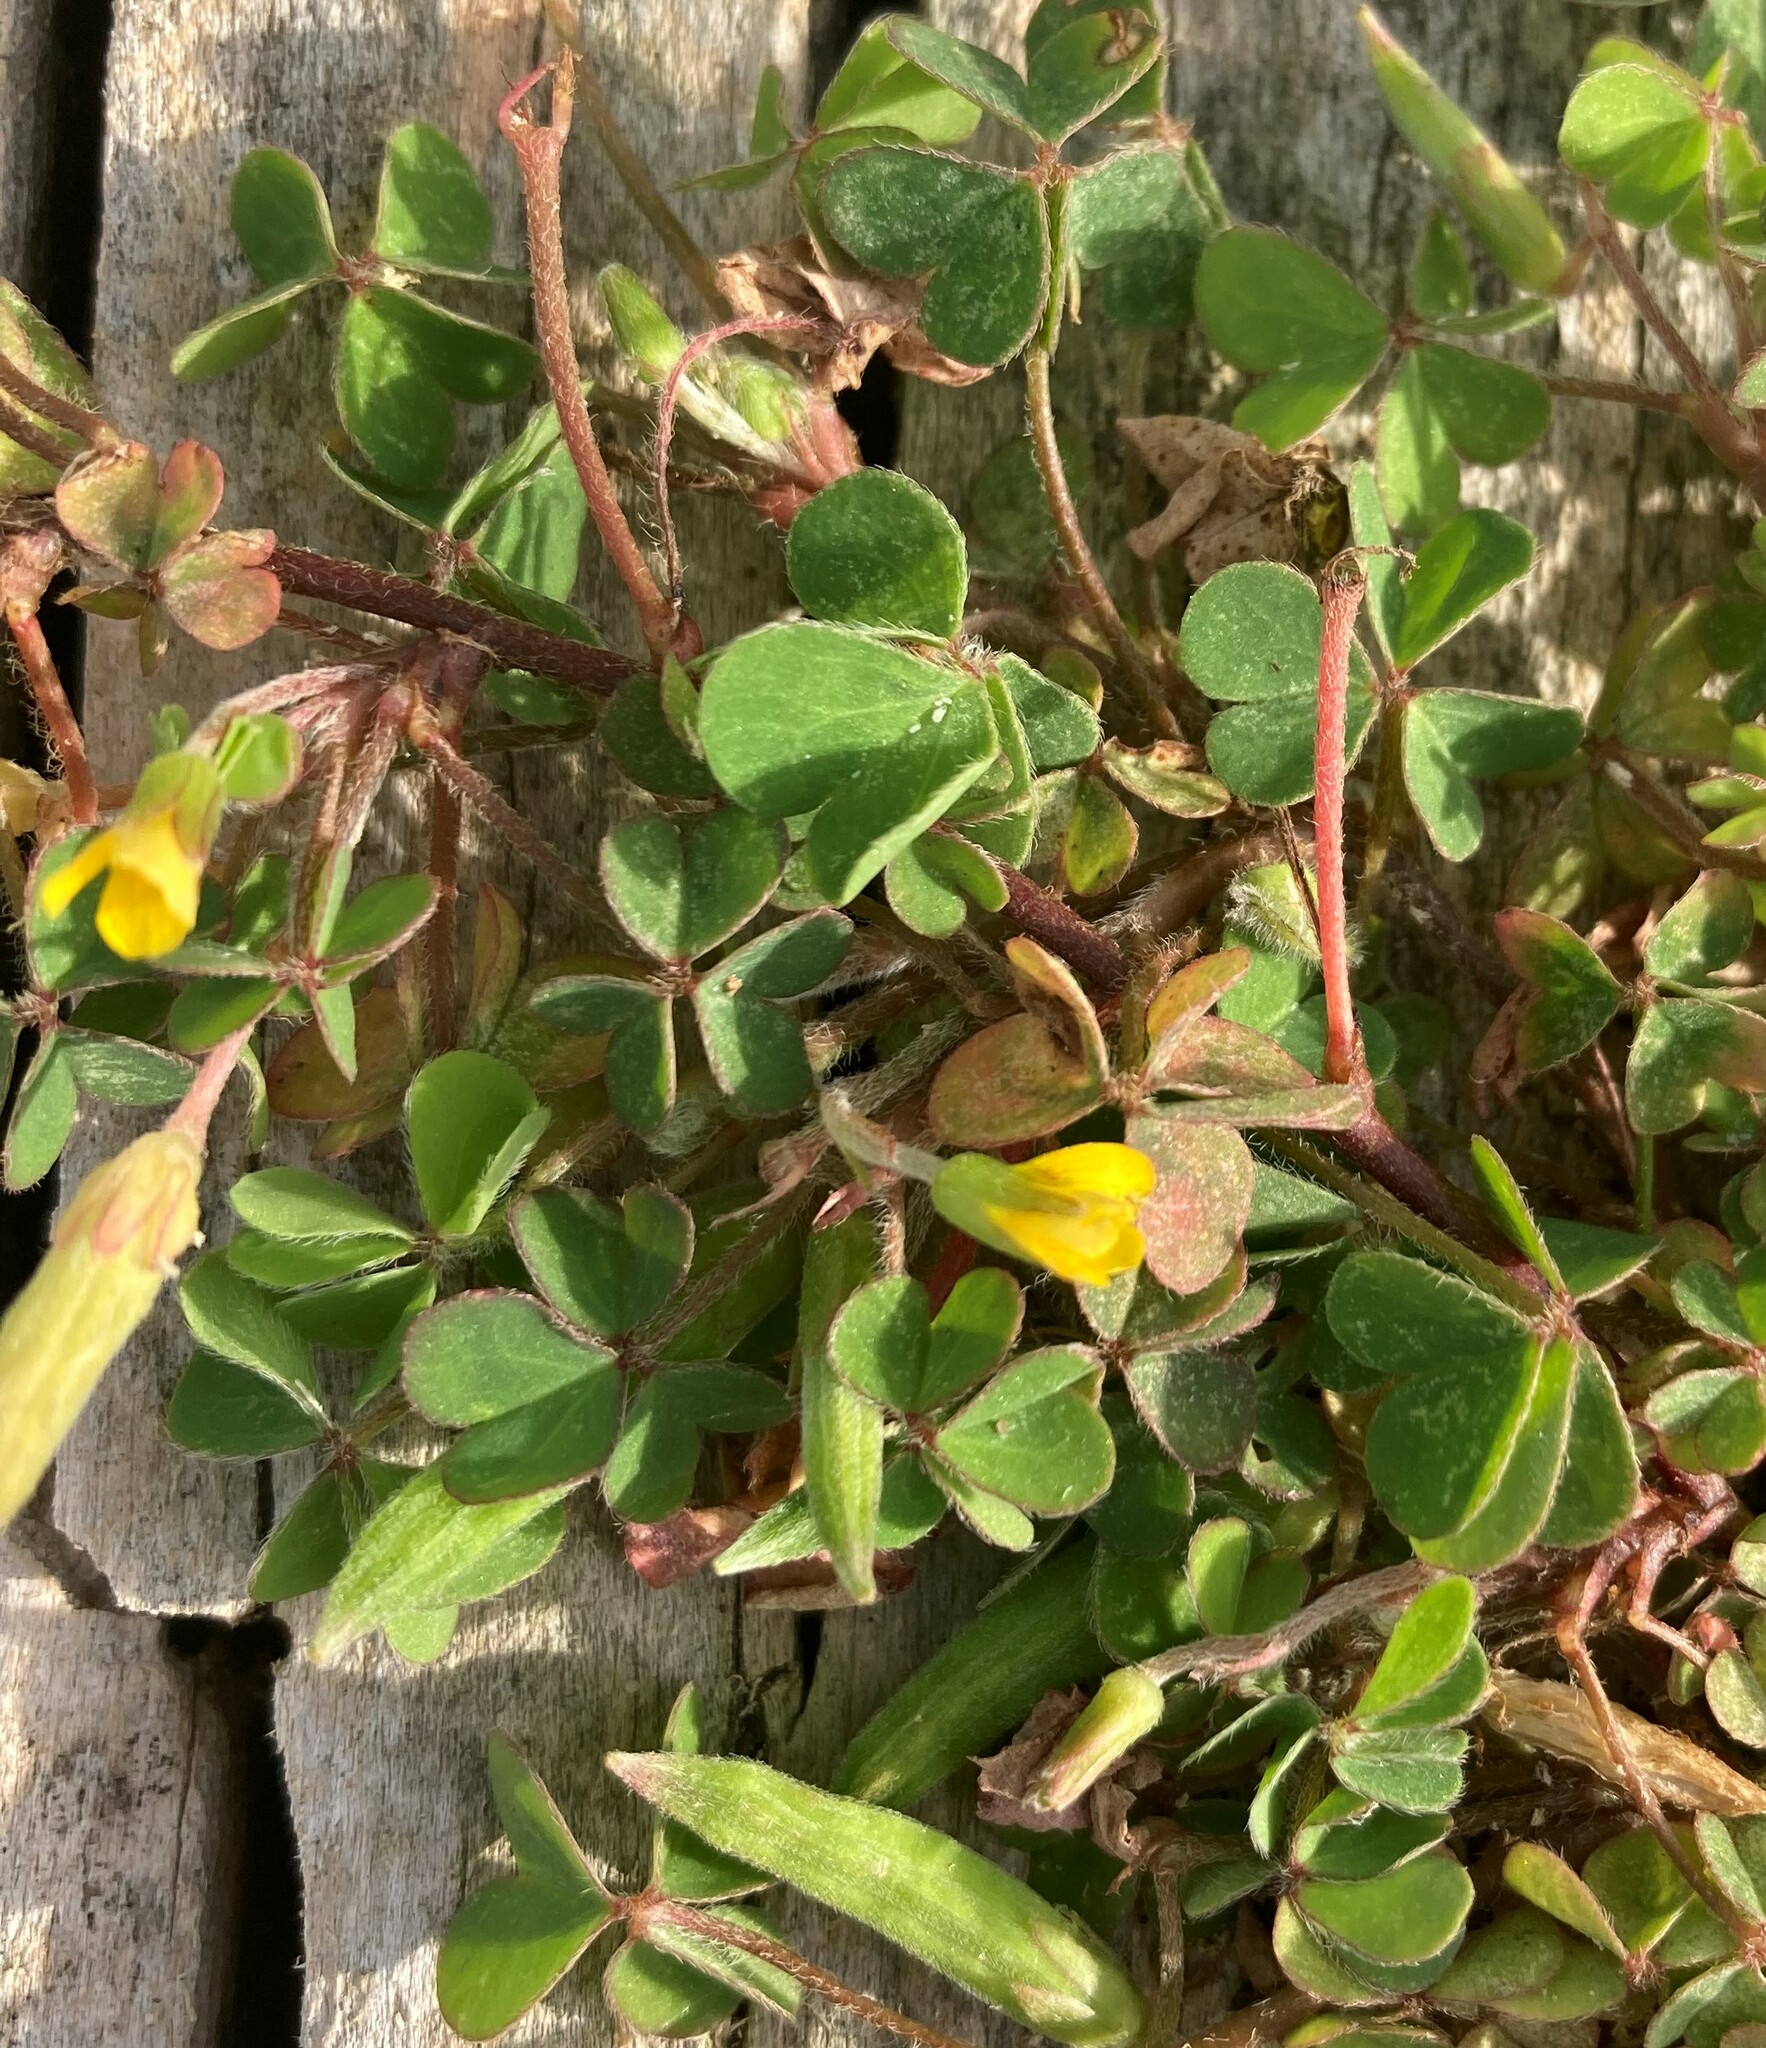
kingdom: Plantae
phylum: Tracheophyta
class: Magnoliopsida
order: Oxalidales
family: Oxalidaceae
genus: Oxalis
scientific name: Oxalis corniculata
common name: Procumbent yellow-sorrel
